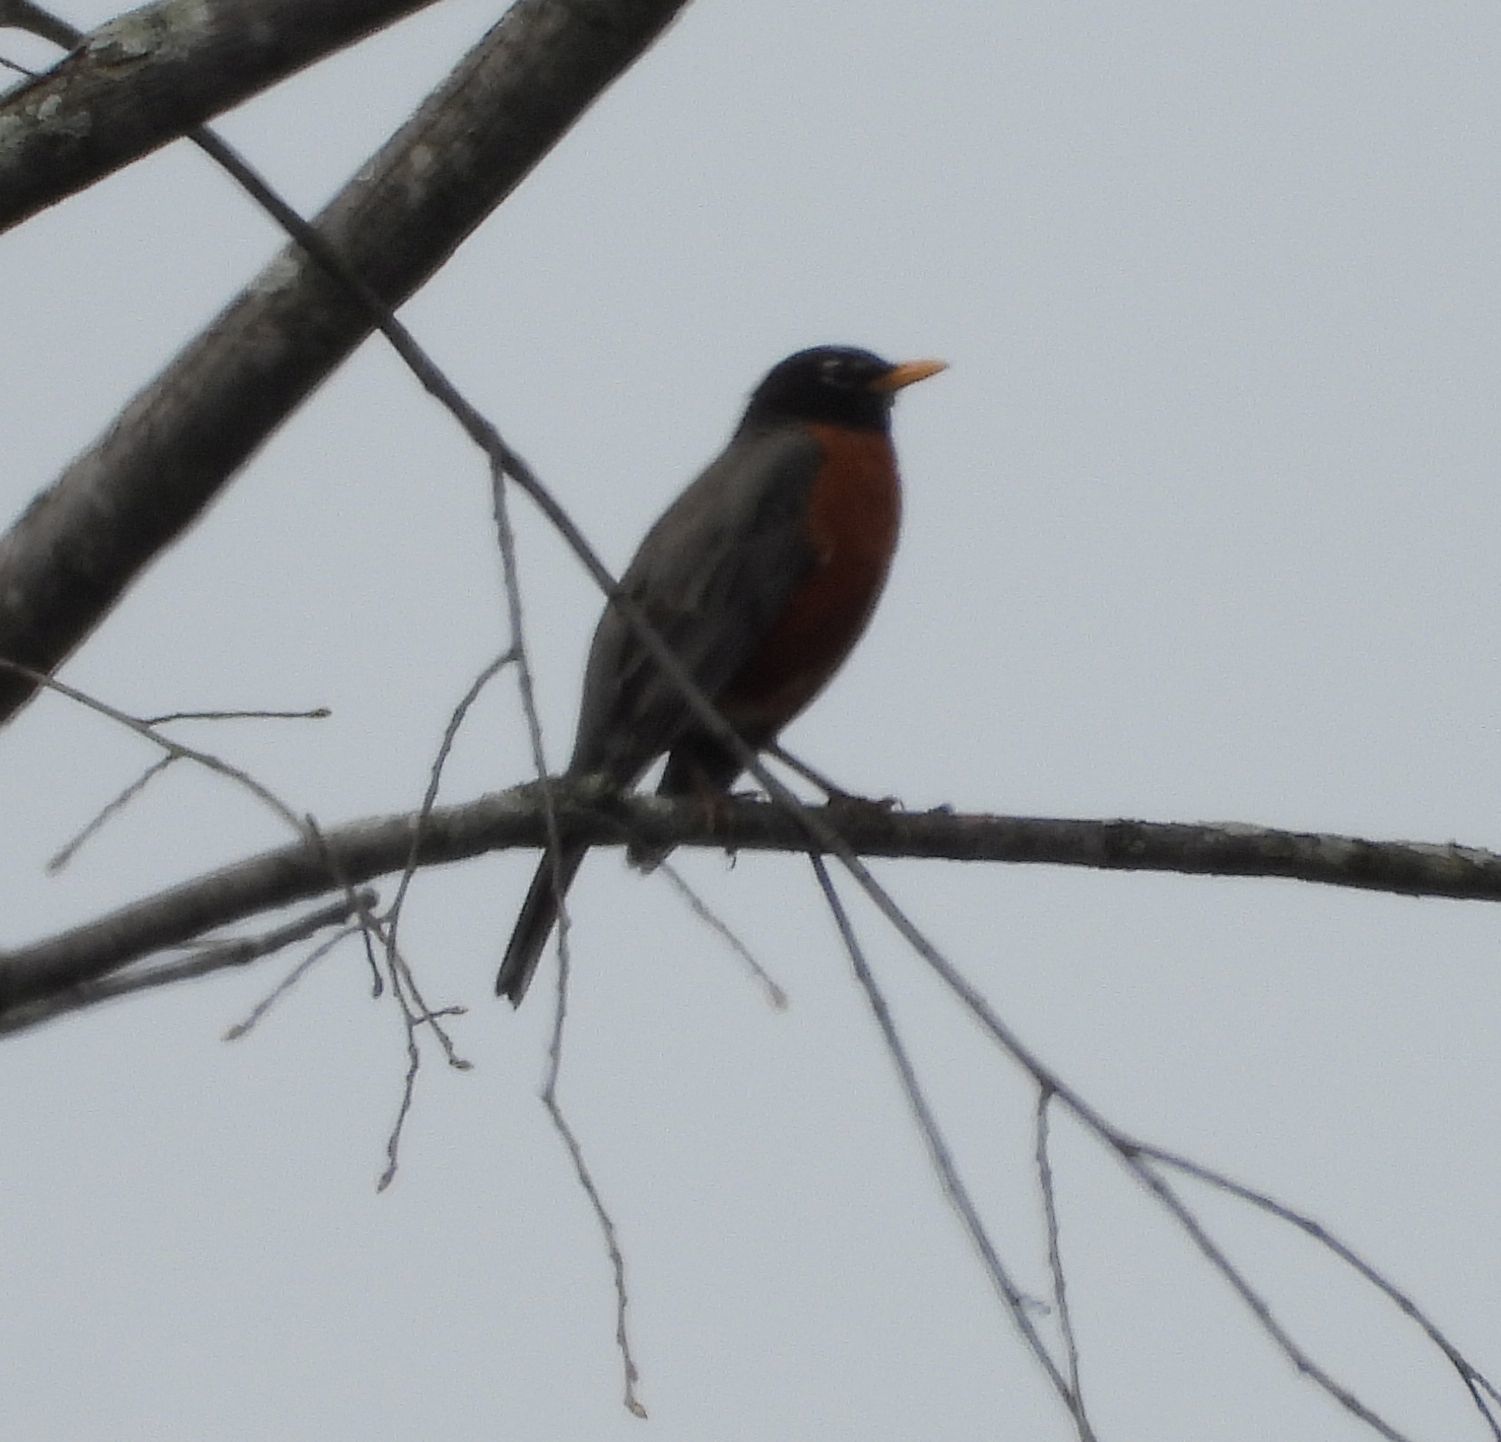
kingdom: Animalia
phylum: Chordata
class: Aves
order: Passeriformes
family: Turdidae
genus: Turdus
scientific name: Turdus migratorius
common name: American robin
